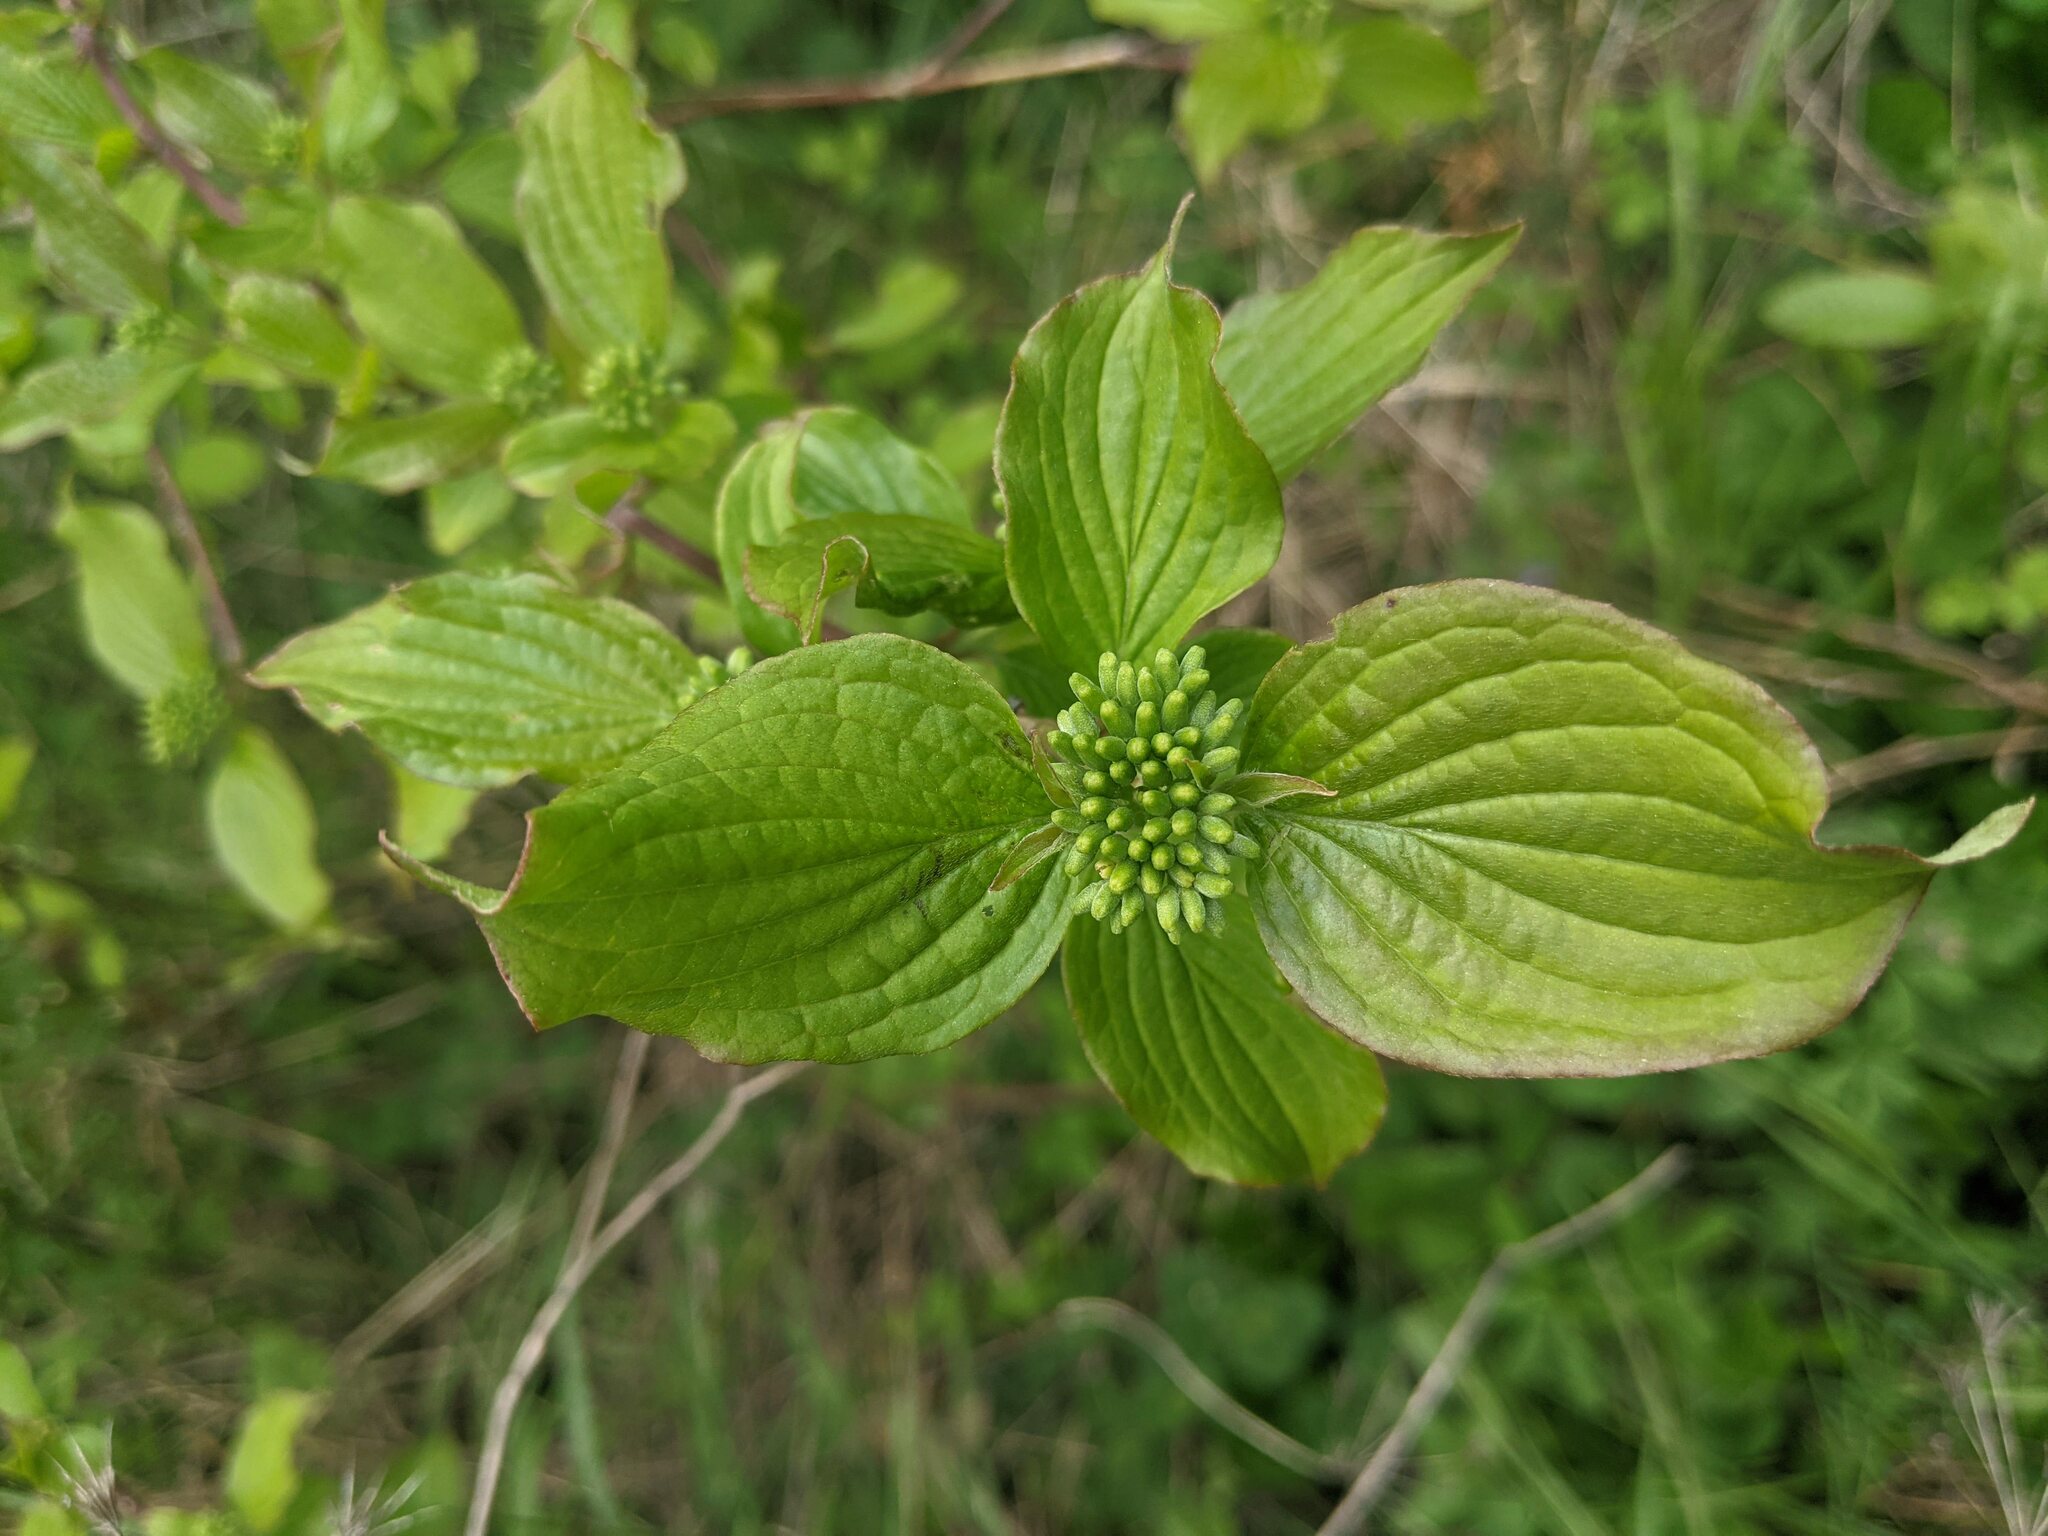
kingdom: Plantae
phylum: Tracheophyta
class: Magnoliopsida
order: Cornales
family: Cornaceae
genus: Cornus
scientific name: Cornus sanguinea
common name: Dogwood
